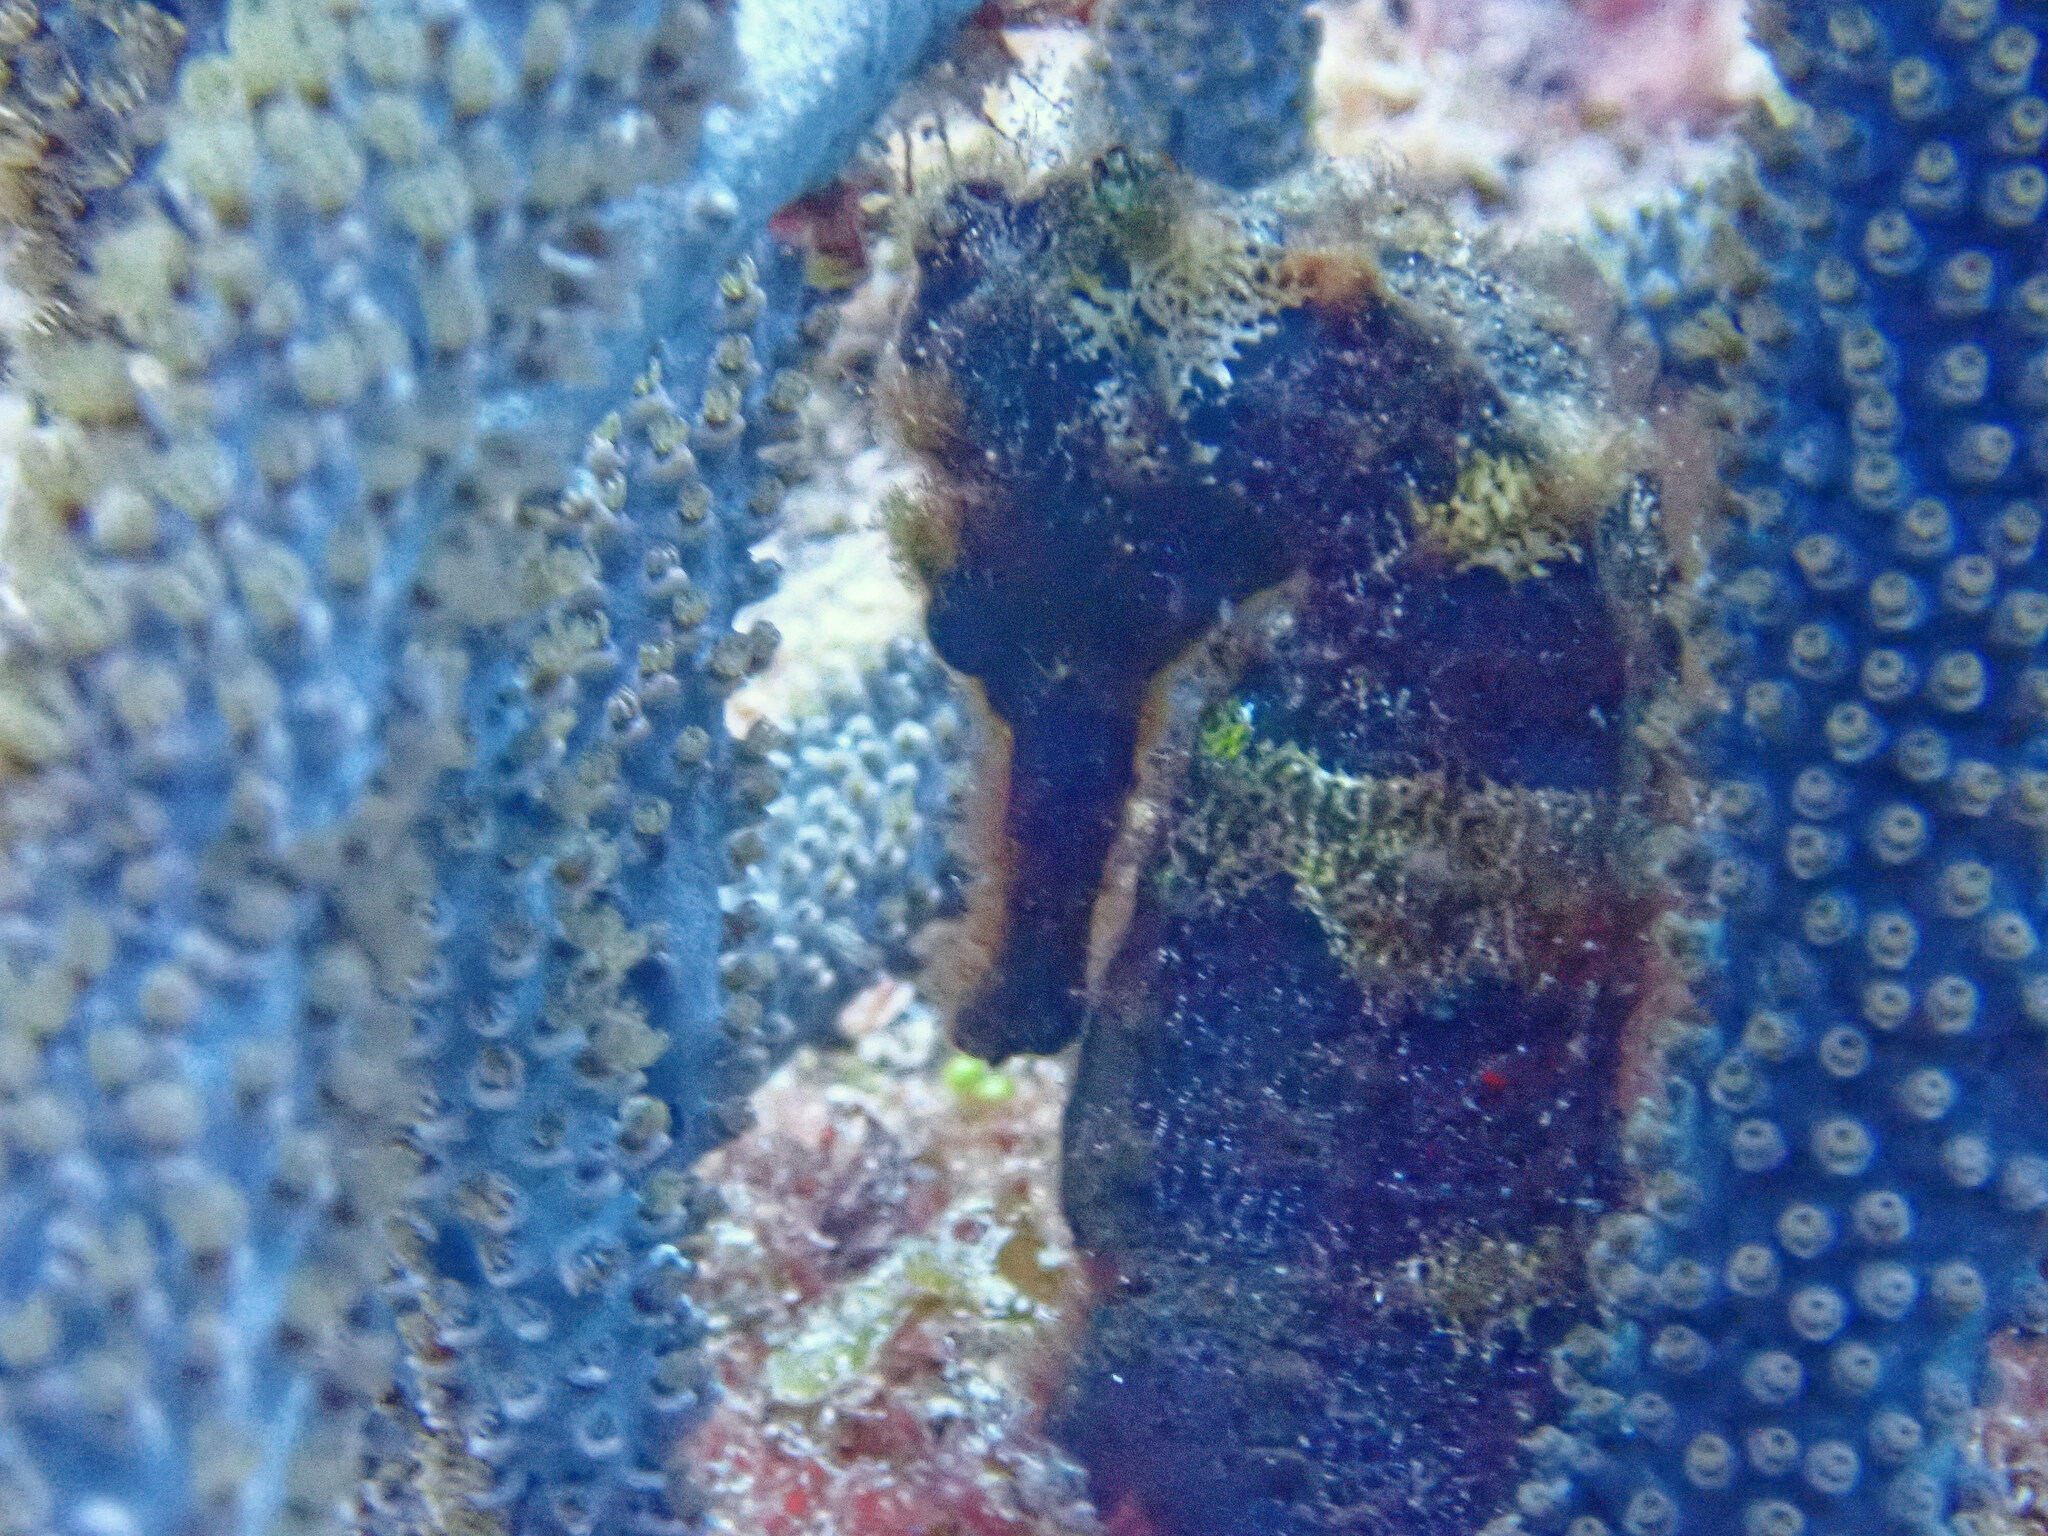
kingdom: Animalia
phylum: Chordata
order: Syngnathiformes
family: Syngnathidae
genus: Hippocampus
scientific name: Hippocampus reidi
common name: Slender seahorse
